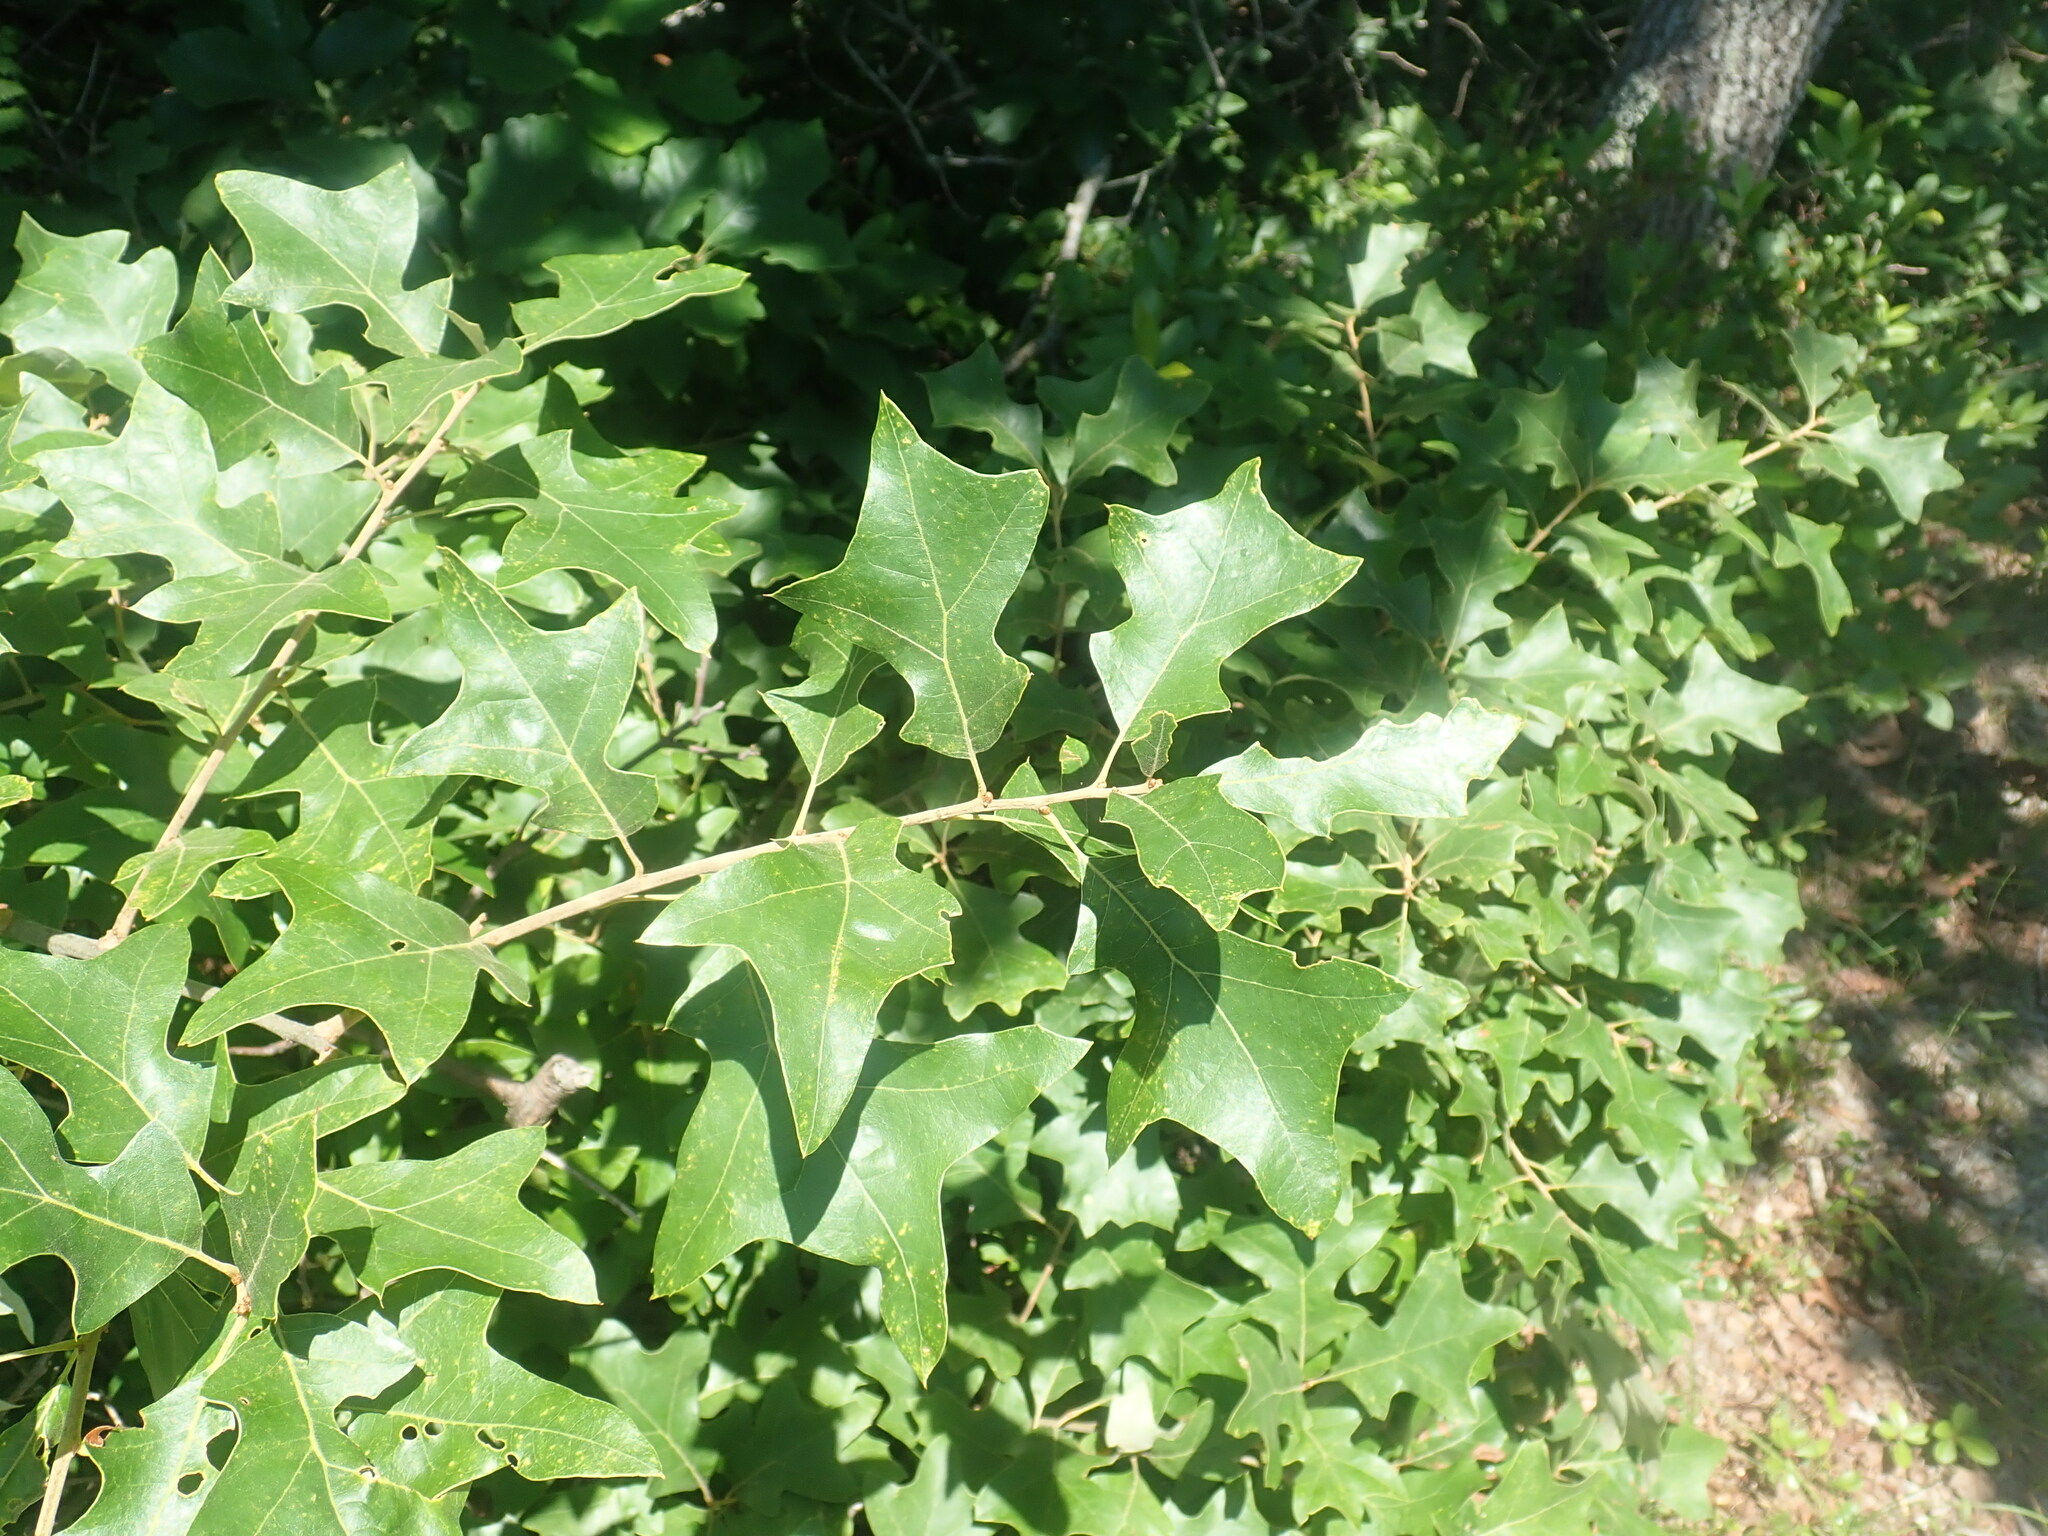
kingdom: Plantae
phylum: Tracheophyta
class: Magnoliopsida
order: Fagales
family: Fagaceae
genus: Quercus
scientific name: Quercus ilicifolia
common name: Bear oak
